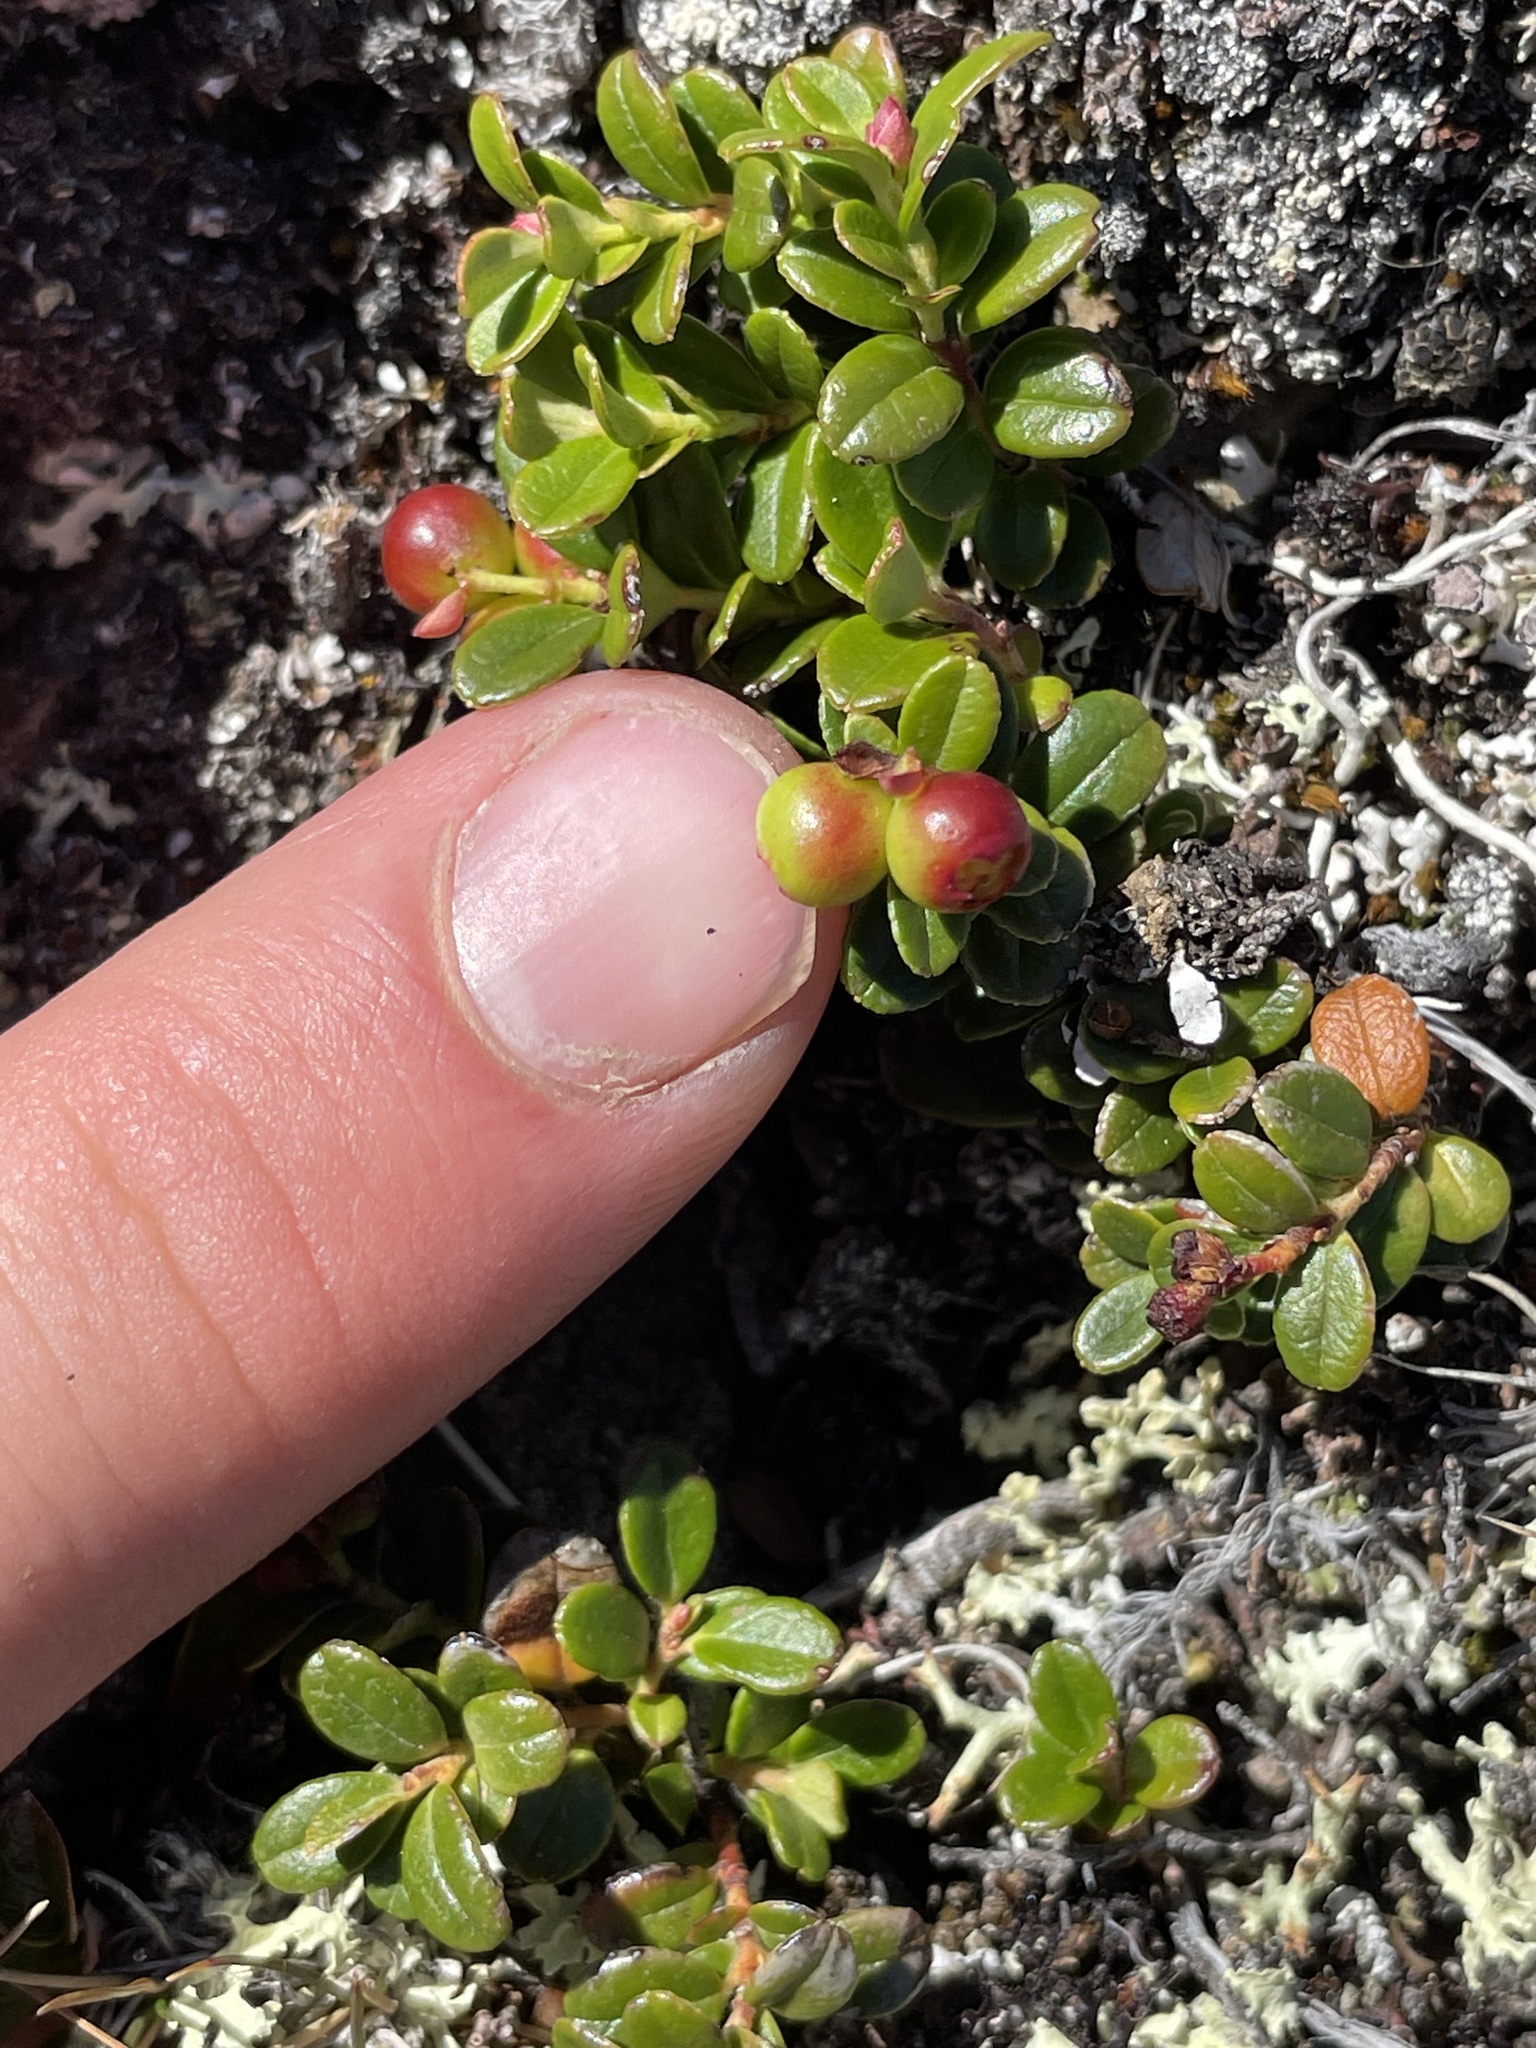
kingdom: Plantae
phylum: Tracheophyta
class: Magnoliopsida
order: Ericales
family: Ericaceae
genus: Vaccinium
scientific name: Vaccinium vitis-idaea
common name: Cowberry
